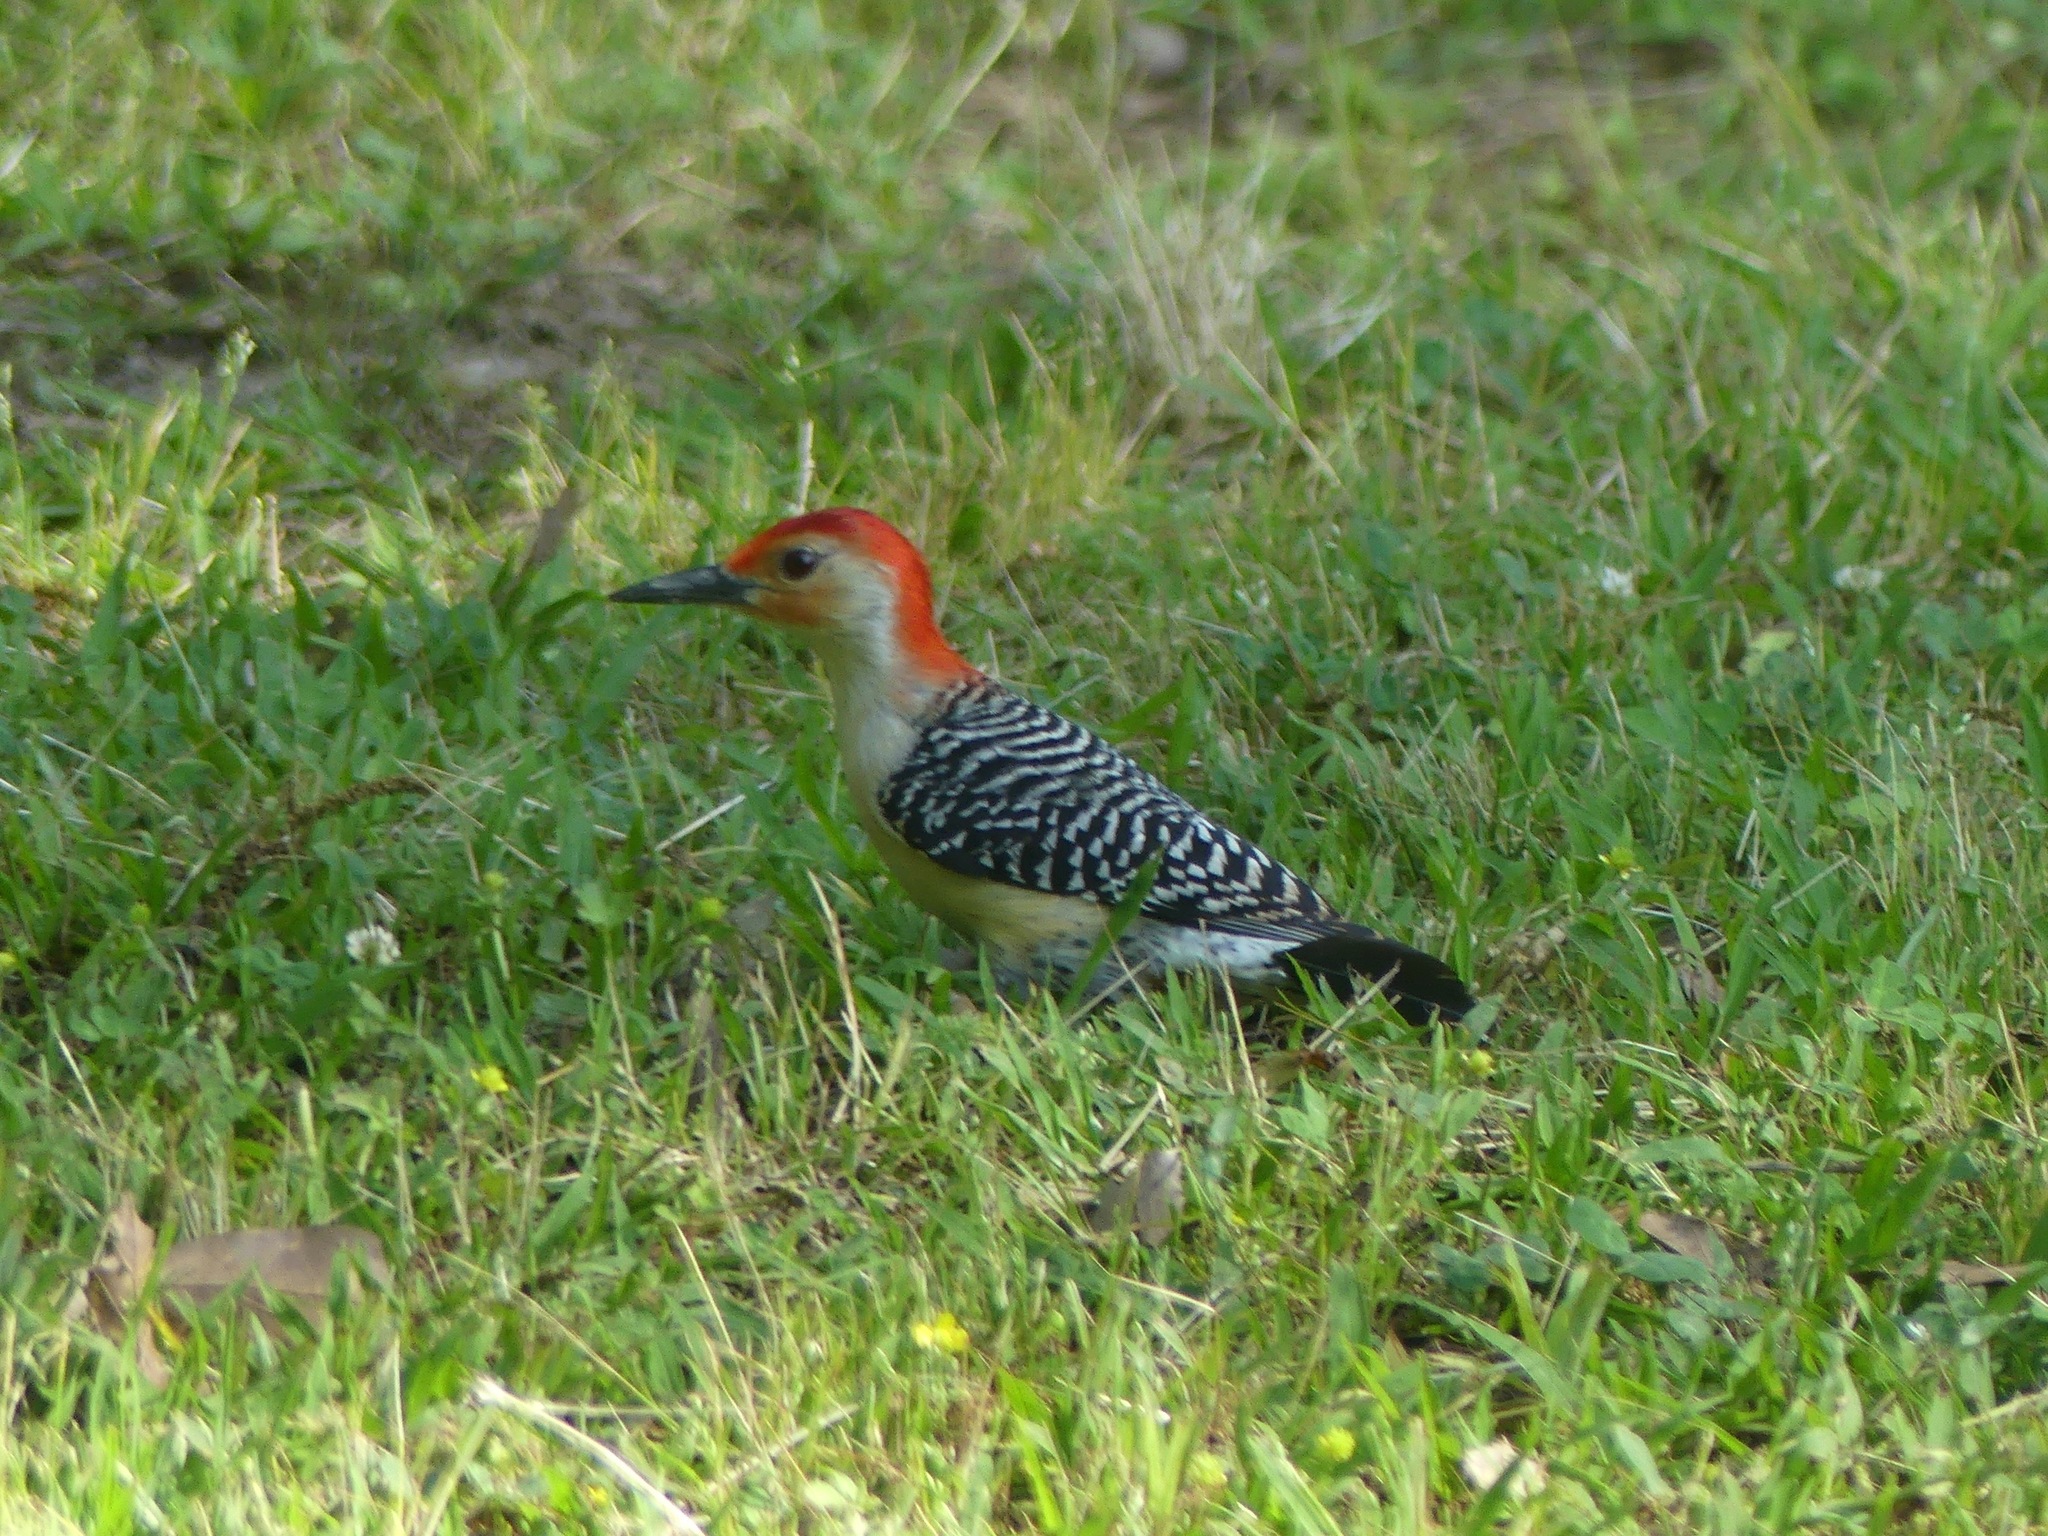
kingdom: Animalia
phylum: Chordata
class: Aves
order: Piciformes
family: Picidae
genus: Melanerpes
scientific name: Melanerpes carolinus
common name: Red-bellied woodpecker
